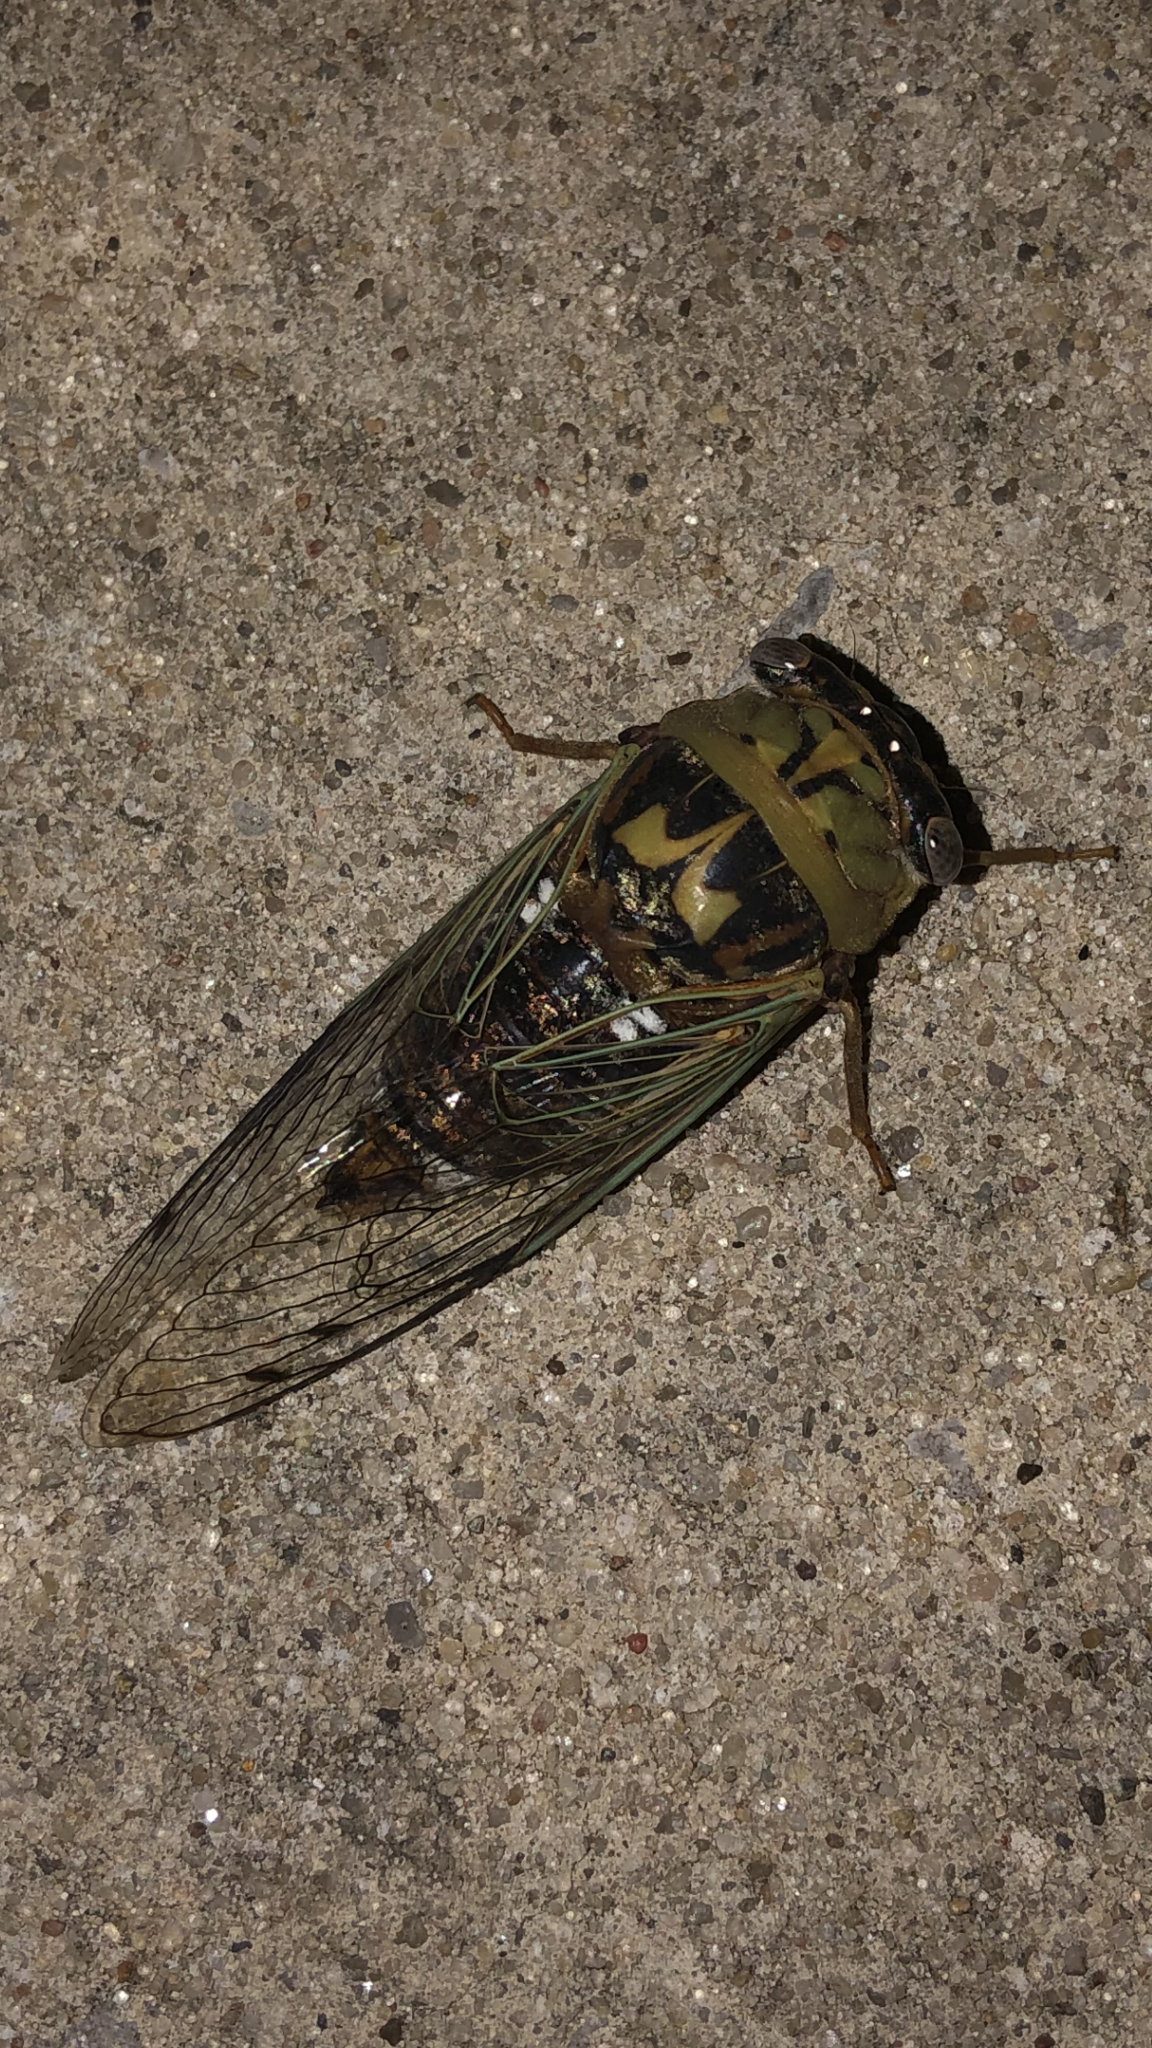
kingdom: Animalia
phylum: Arthropoda
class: Insecta
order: Hemiptera
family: Cicadidae
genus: Megatibicen
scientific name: Megatibicen resh
